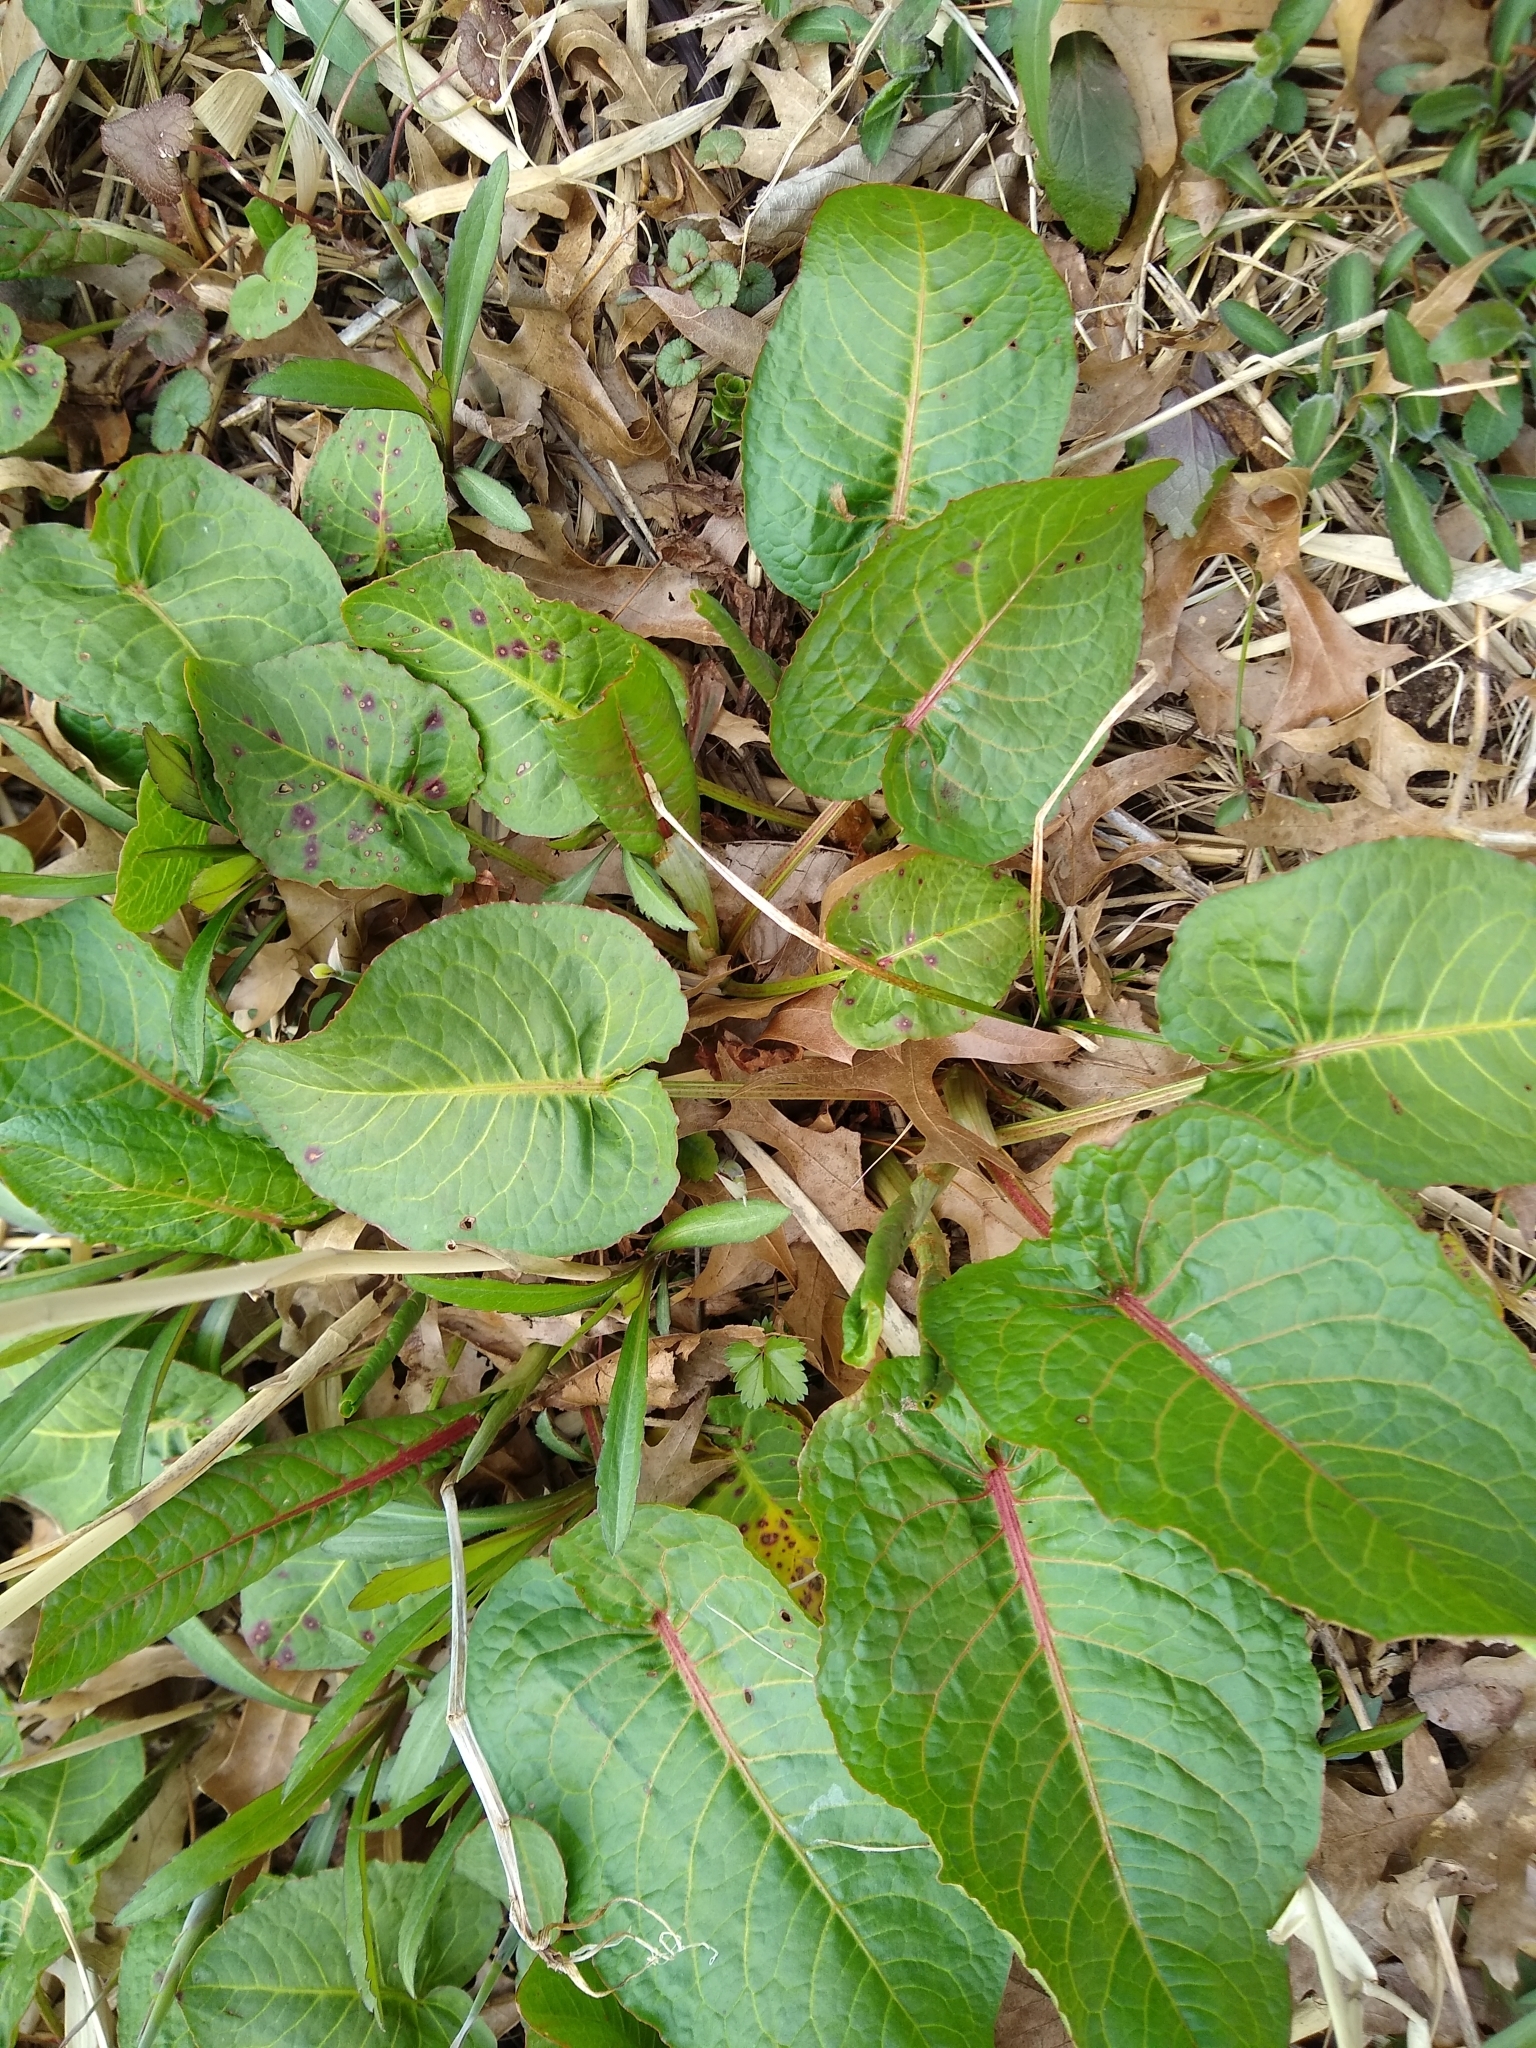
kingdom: Plantae
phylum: Tracheophyta
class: Magnoliopsida
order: Caryophyllales
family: Polygonaceae
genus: Rumex
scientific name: Rumex obtusifolius
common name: Bitter dock
